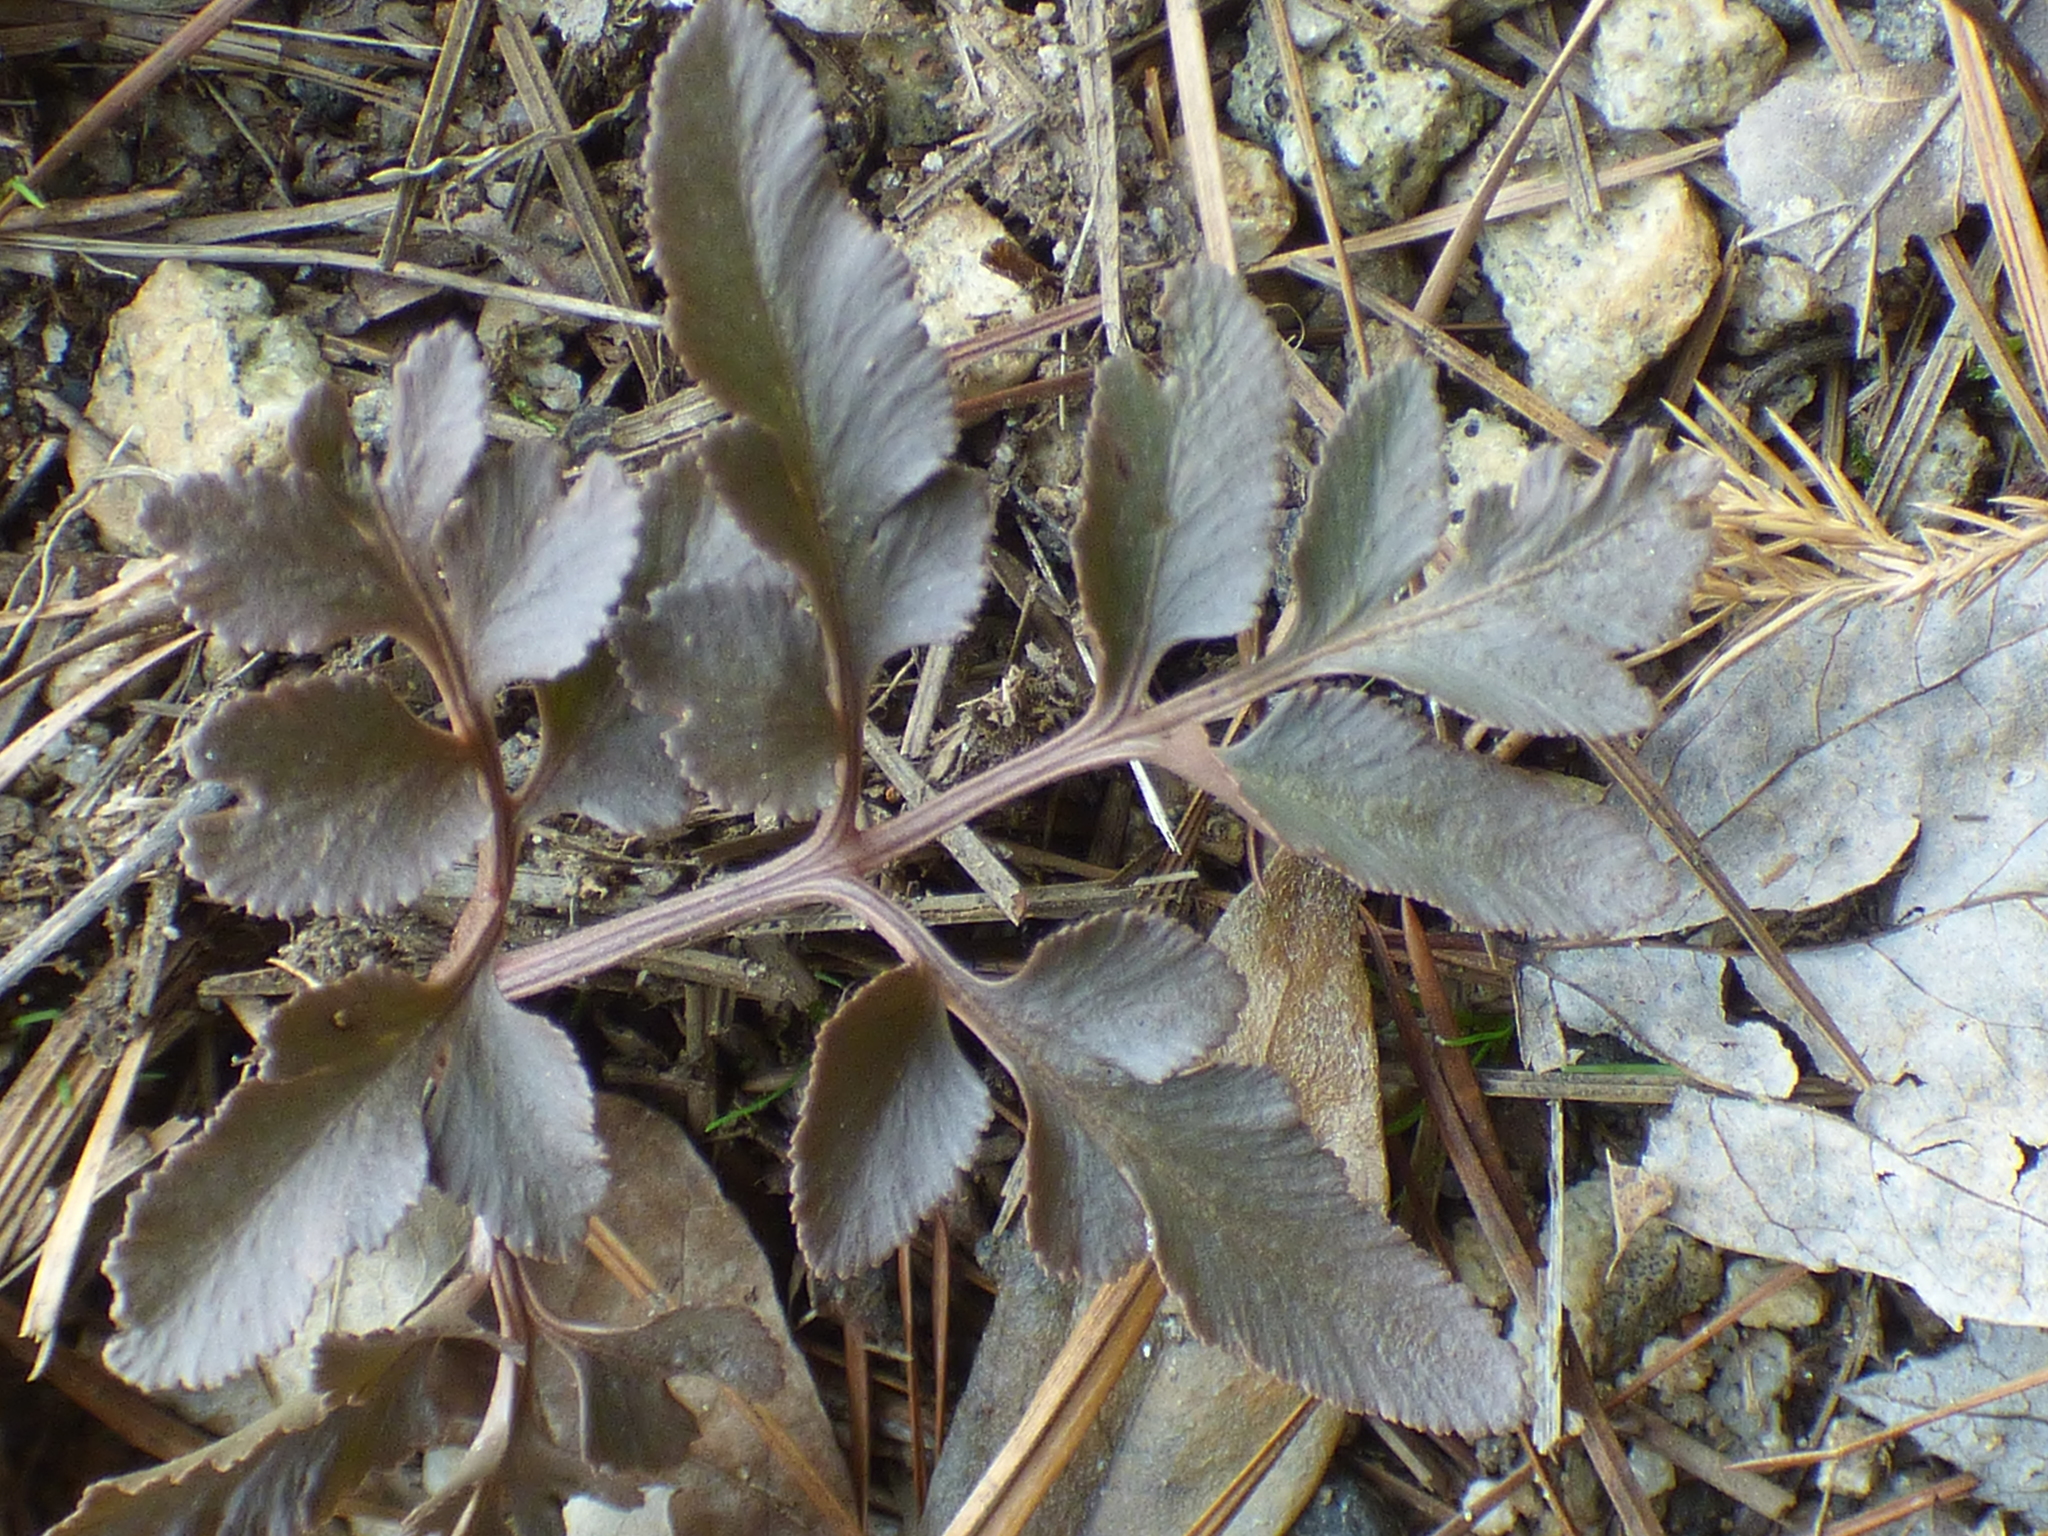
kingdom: Plantae
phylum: Tracheophyta
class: Polypodiopsida
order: Ophioglossales
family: Ophioglossaceae
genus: Sceptridium
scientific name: Sceptridium dissectum
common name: Cut-leaved grapefern
